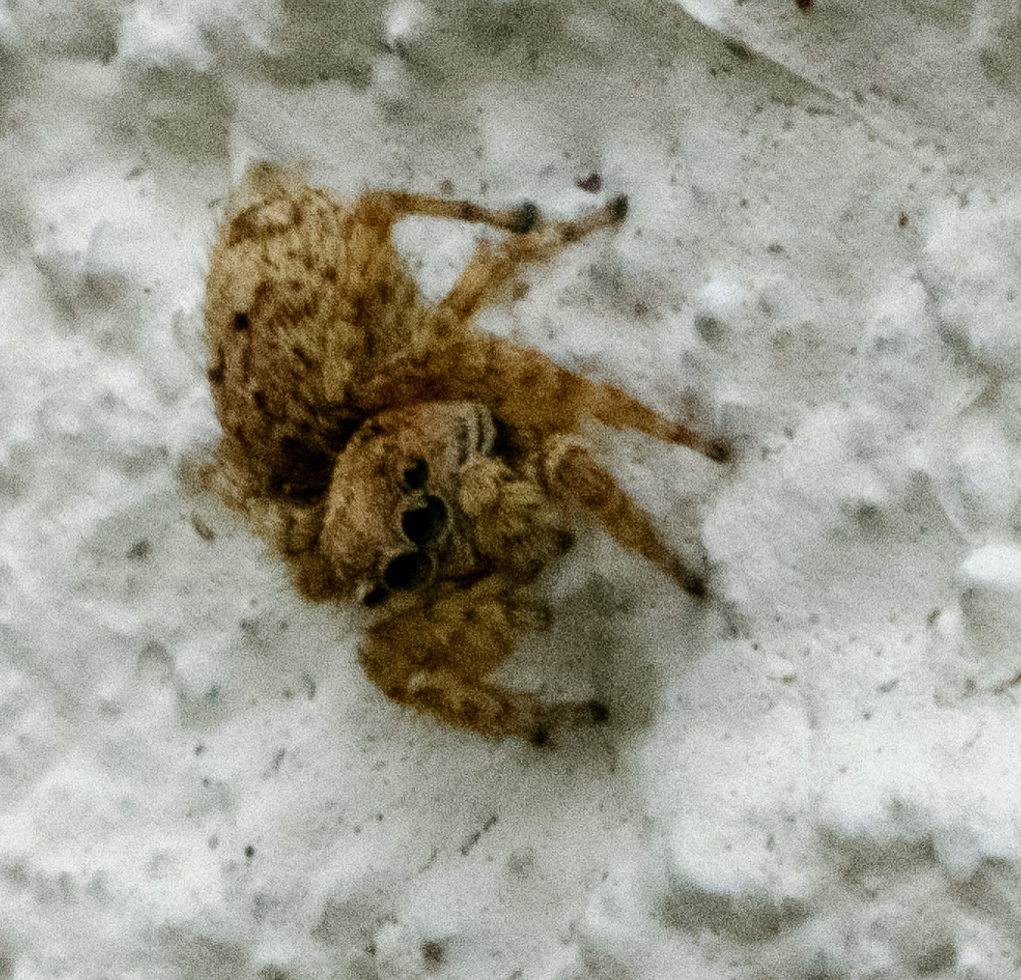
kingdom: Animalia
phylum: Arthropoda
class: Arachnida
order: Araneae
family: Salticidae
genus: Attulus
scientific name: Attulus fasciger
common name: Asiatic wall jumping spider
